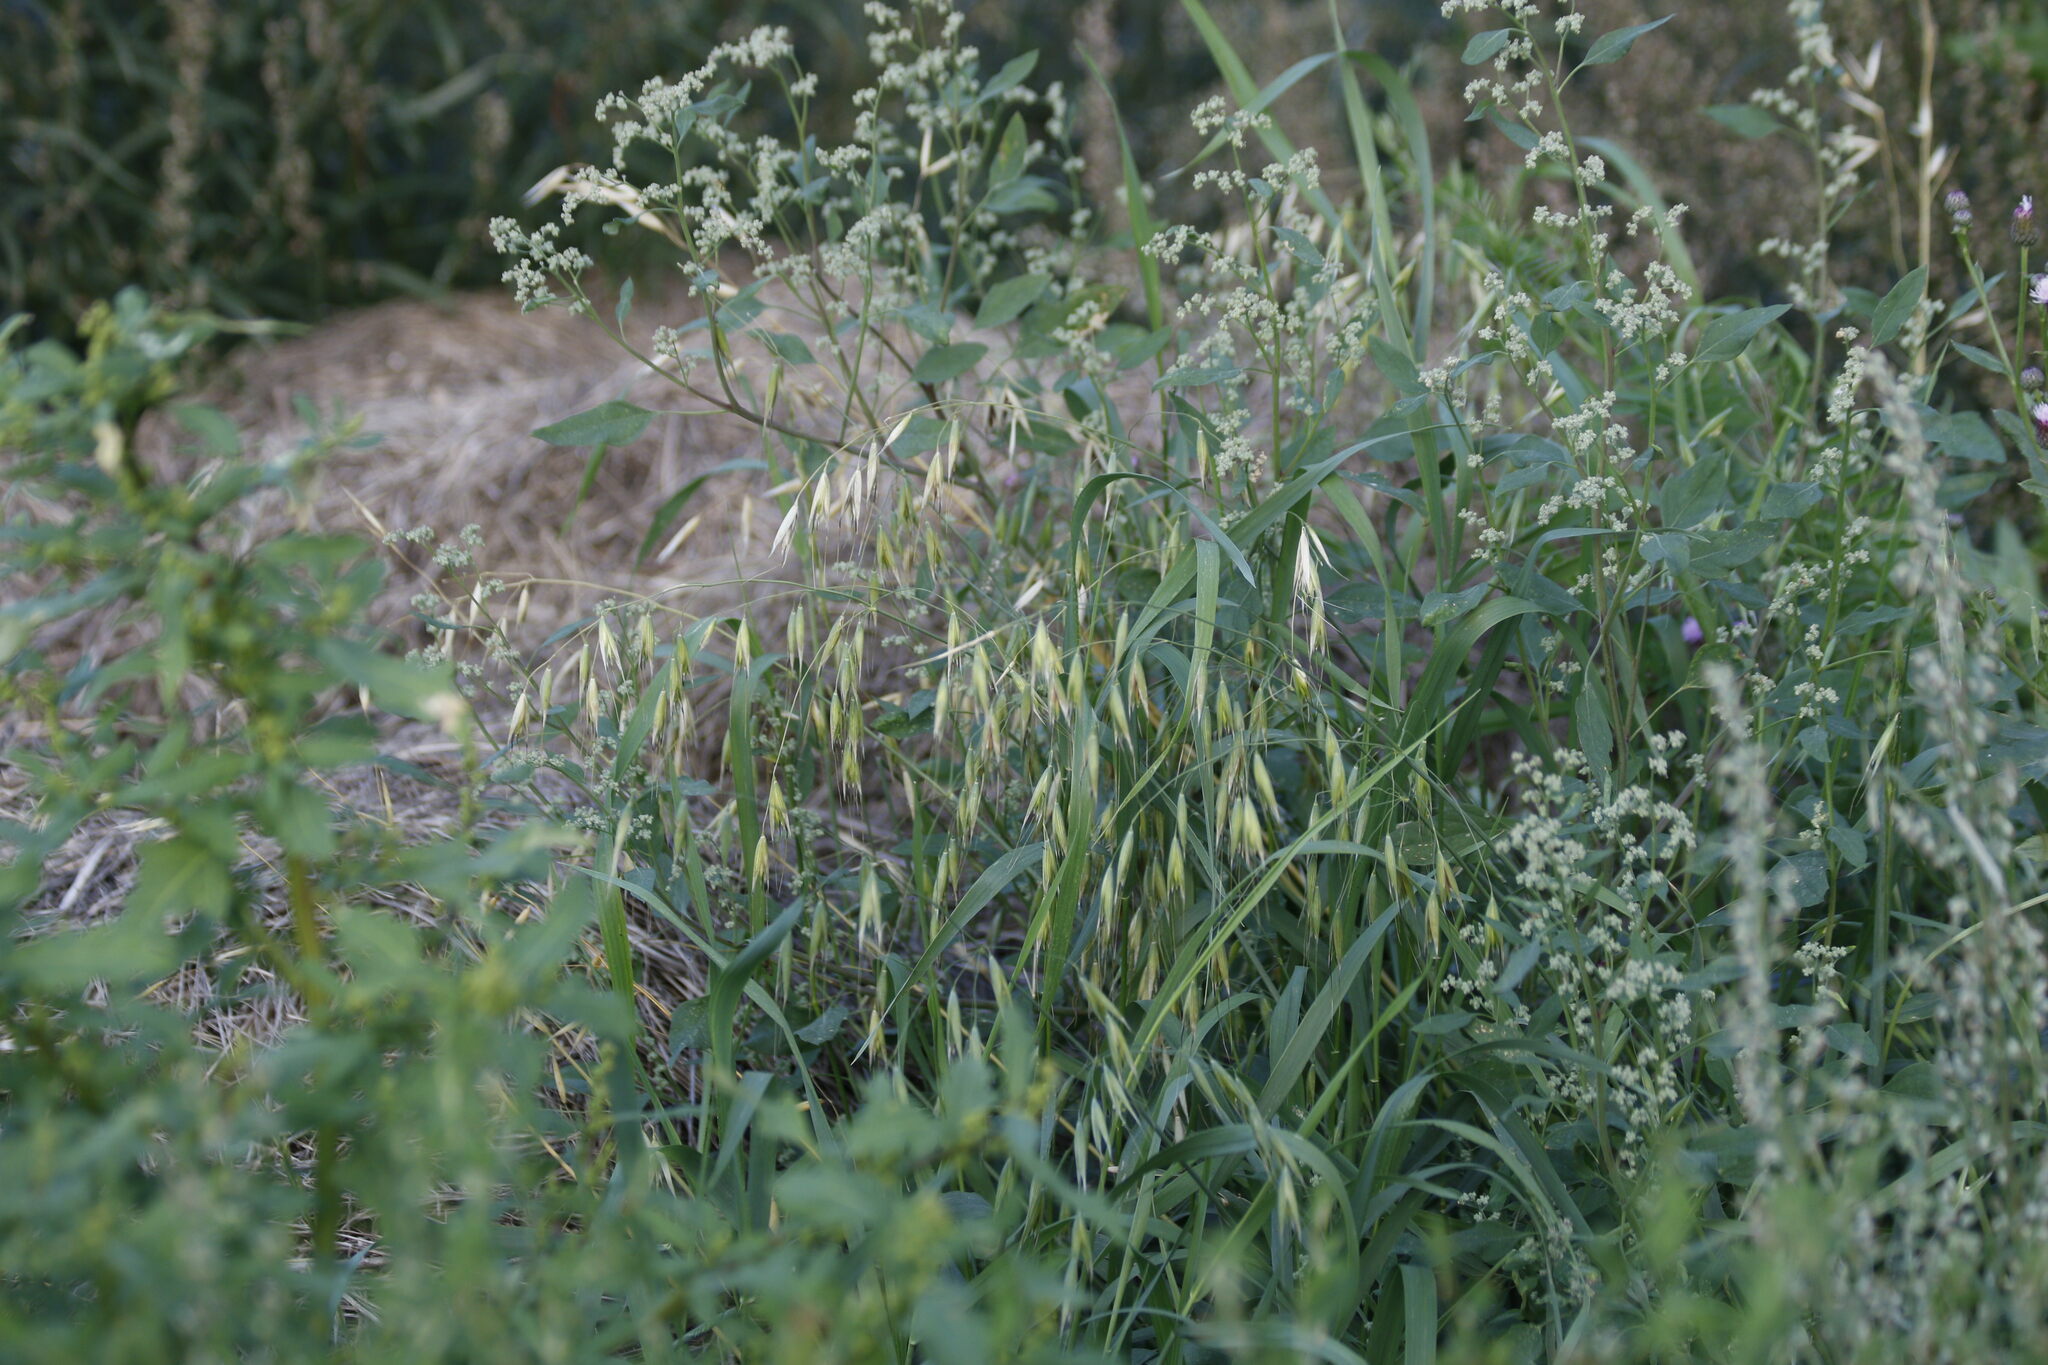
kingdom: Plantae
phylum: Tracheophyta
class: Liliopsida
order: Poales
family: Poaceae
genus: Avena
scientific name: Avena fatua
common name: Wild oat
